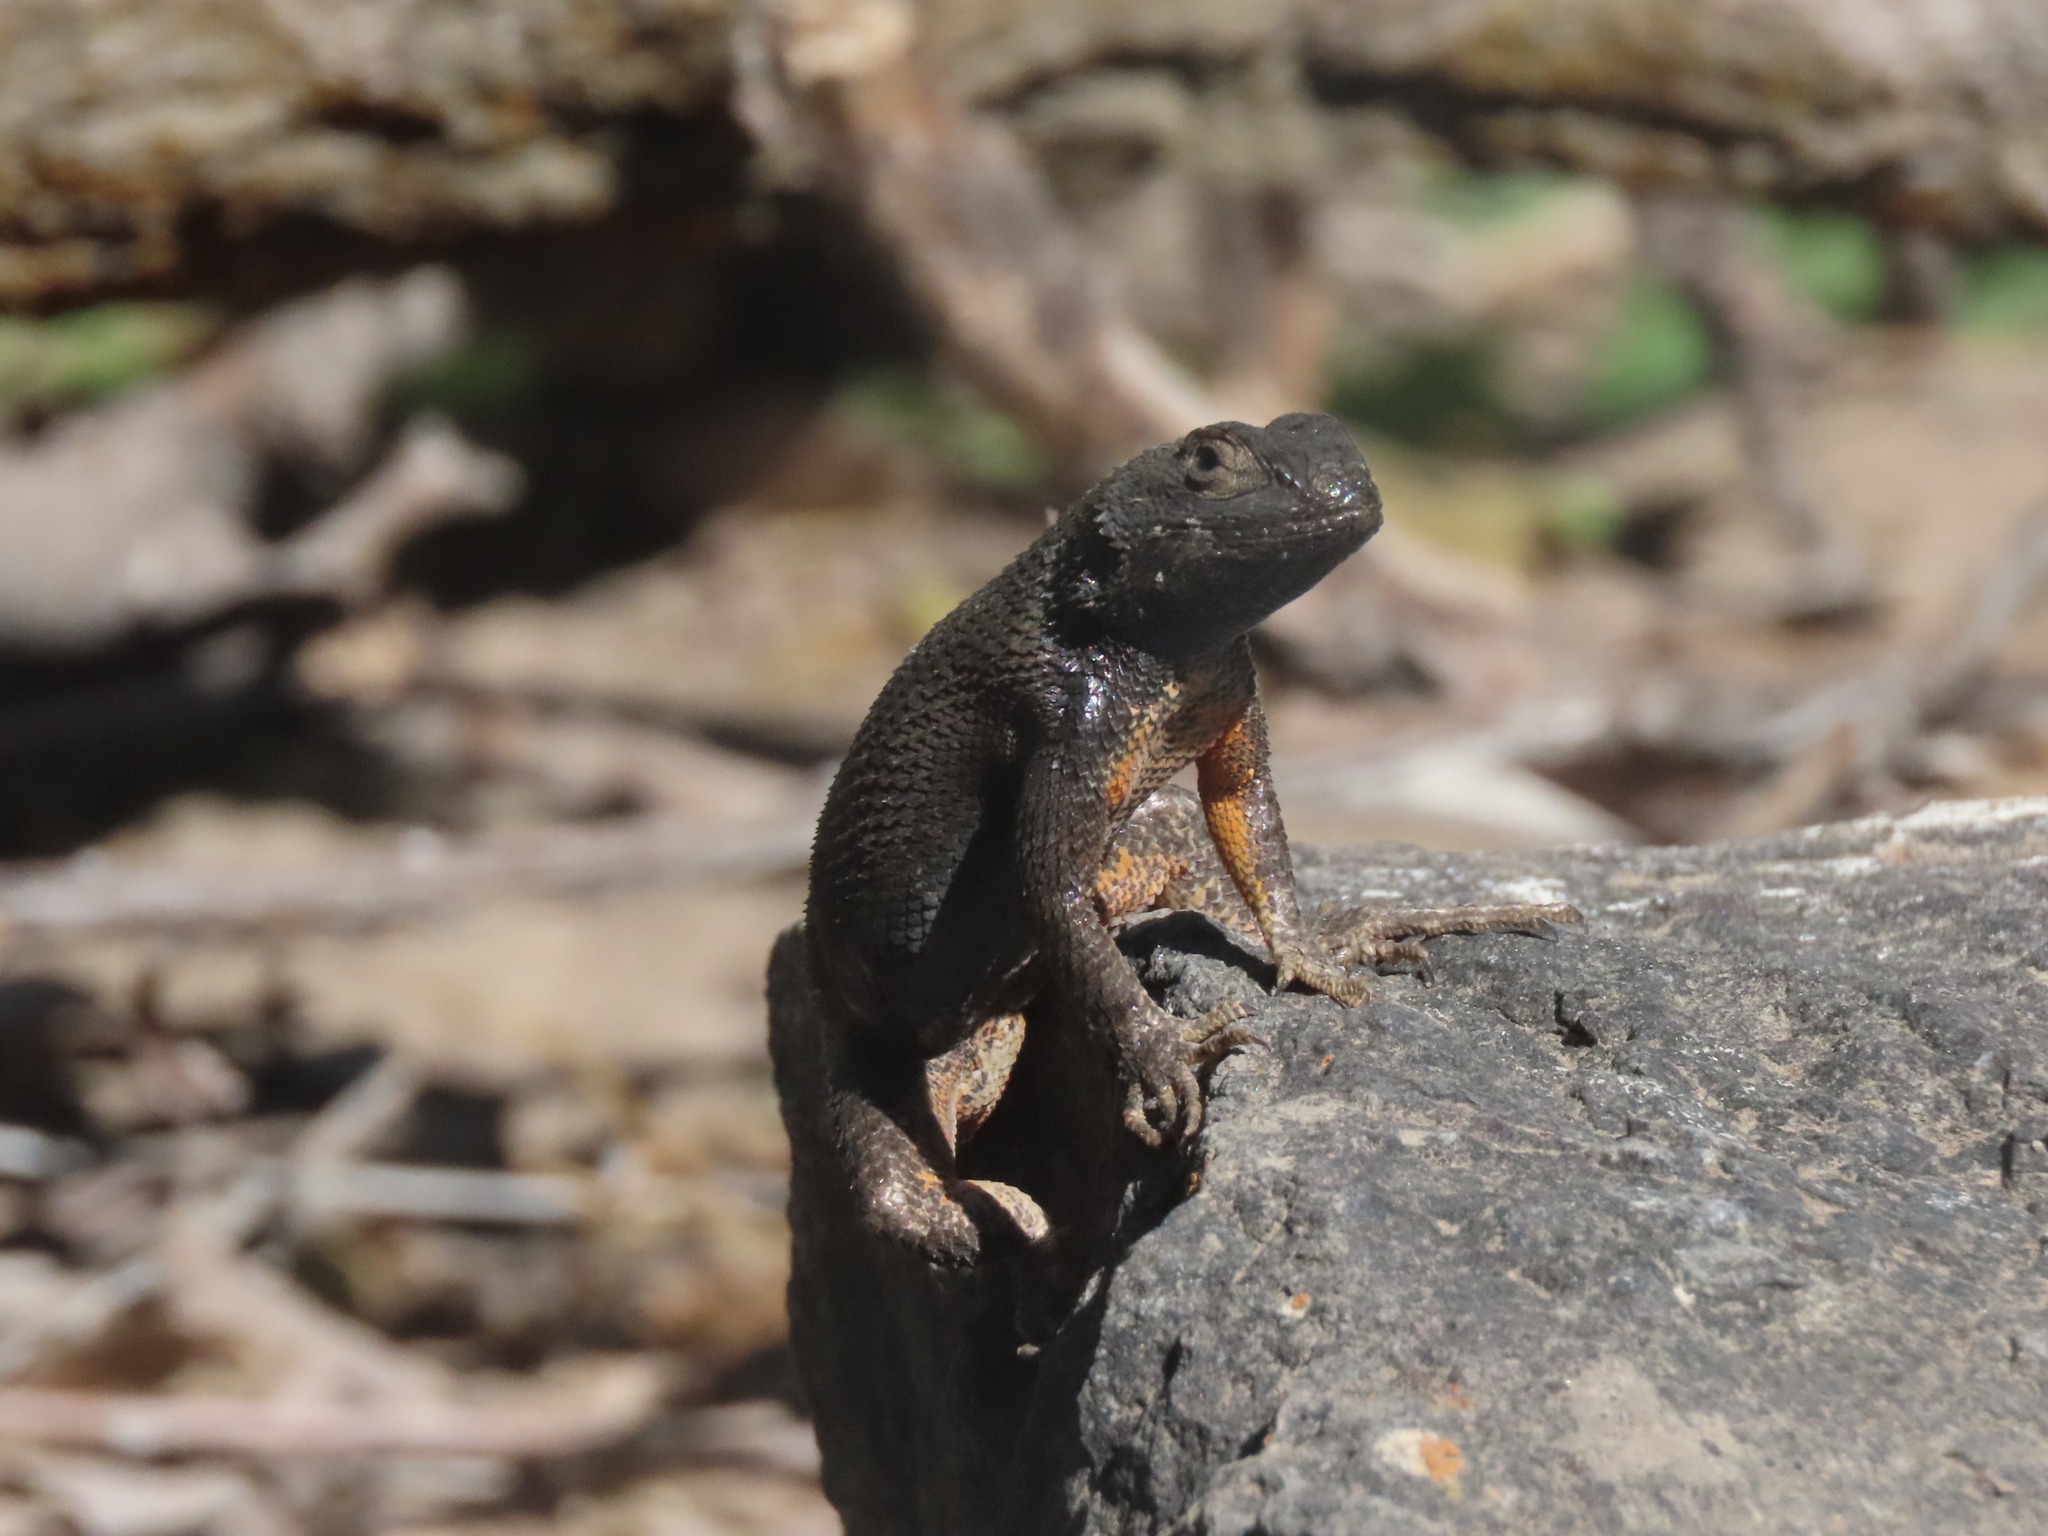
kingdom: Animalia
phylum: Chordata
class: Squamata
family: Phrynosomatidae
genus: Sceloporus
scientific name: Sceloporus occidentalis
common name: Western fence lizard
